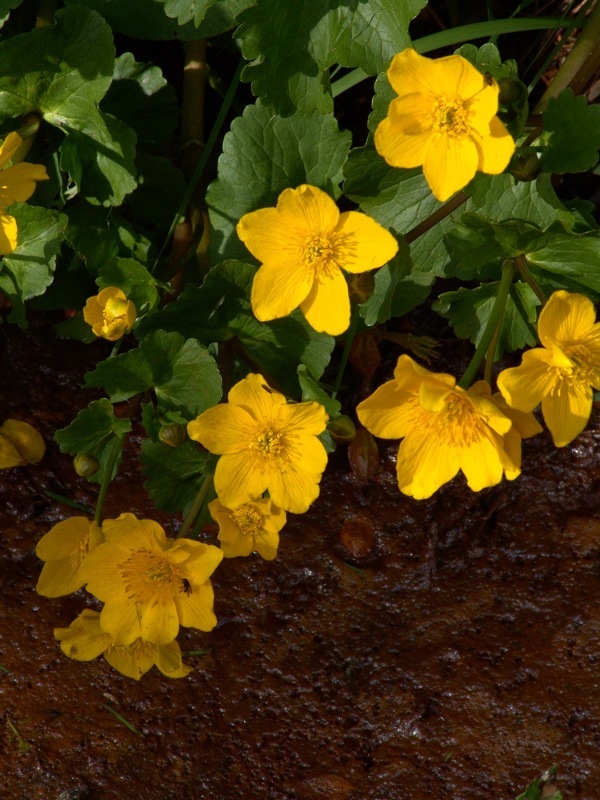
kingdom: Plantae
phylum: Tracheophyta
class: Magnoliopsida
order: Ranunculales
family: Ranunculaceae
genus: Caltha
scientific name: Caltha palustris
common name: Marsh marigold
